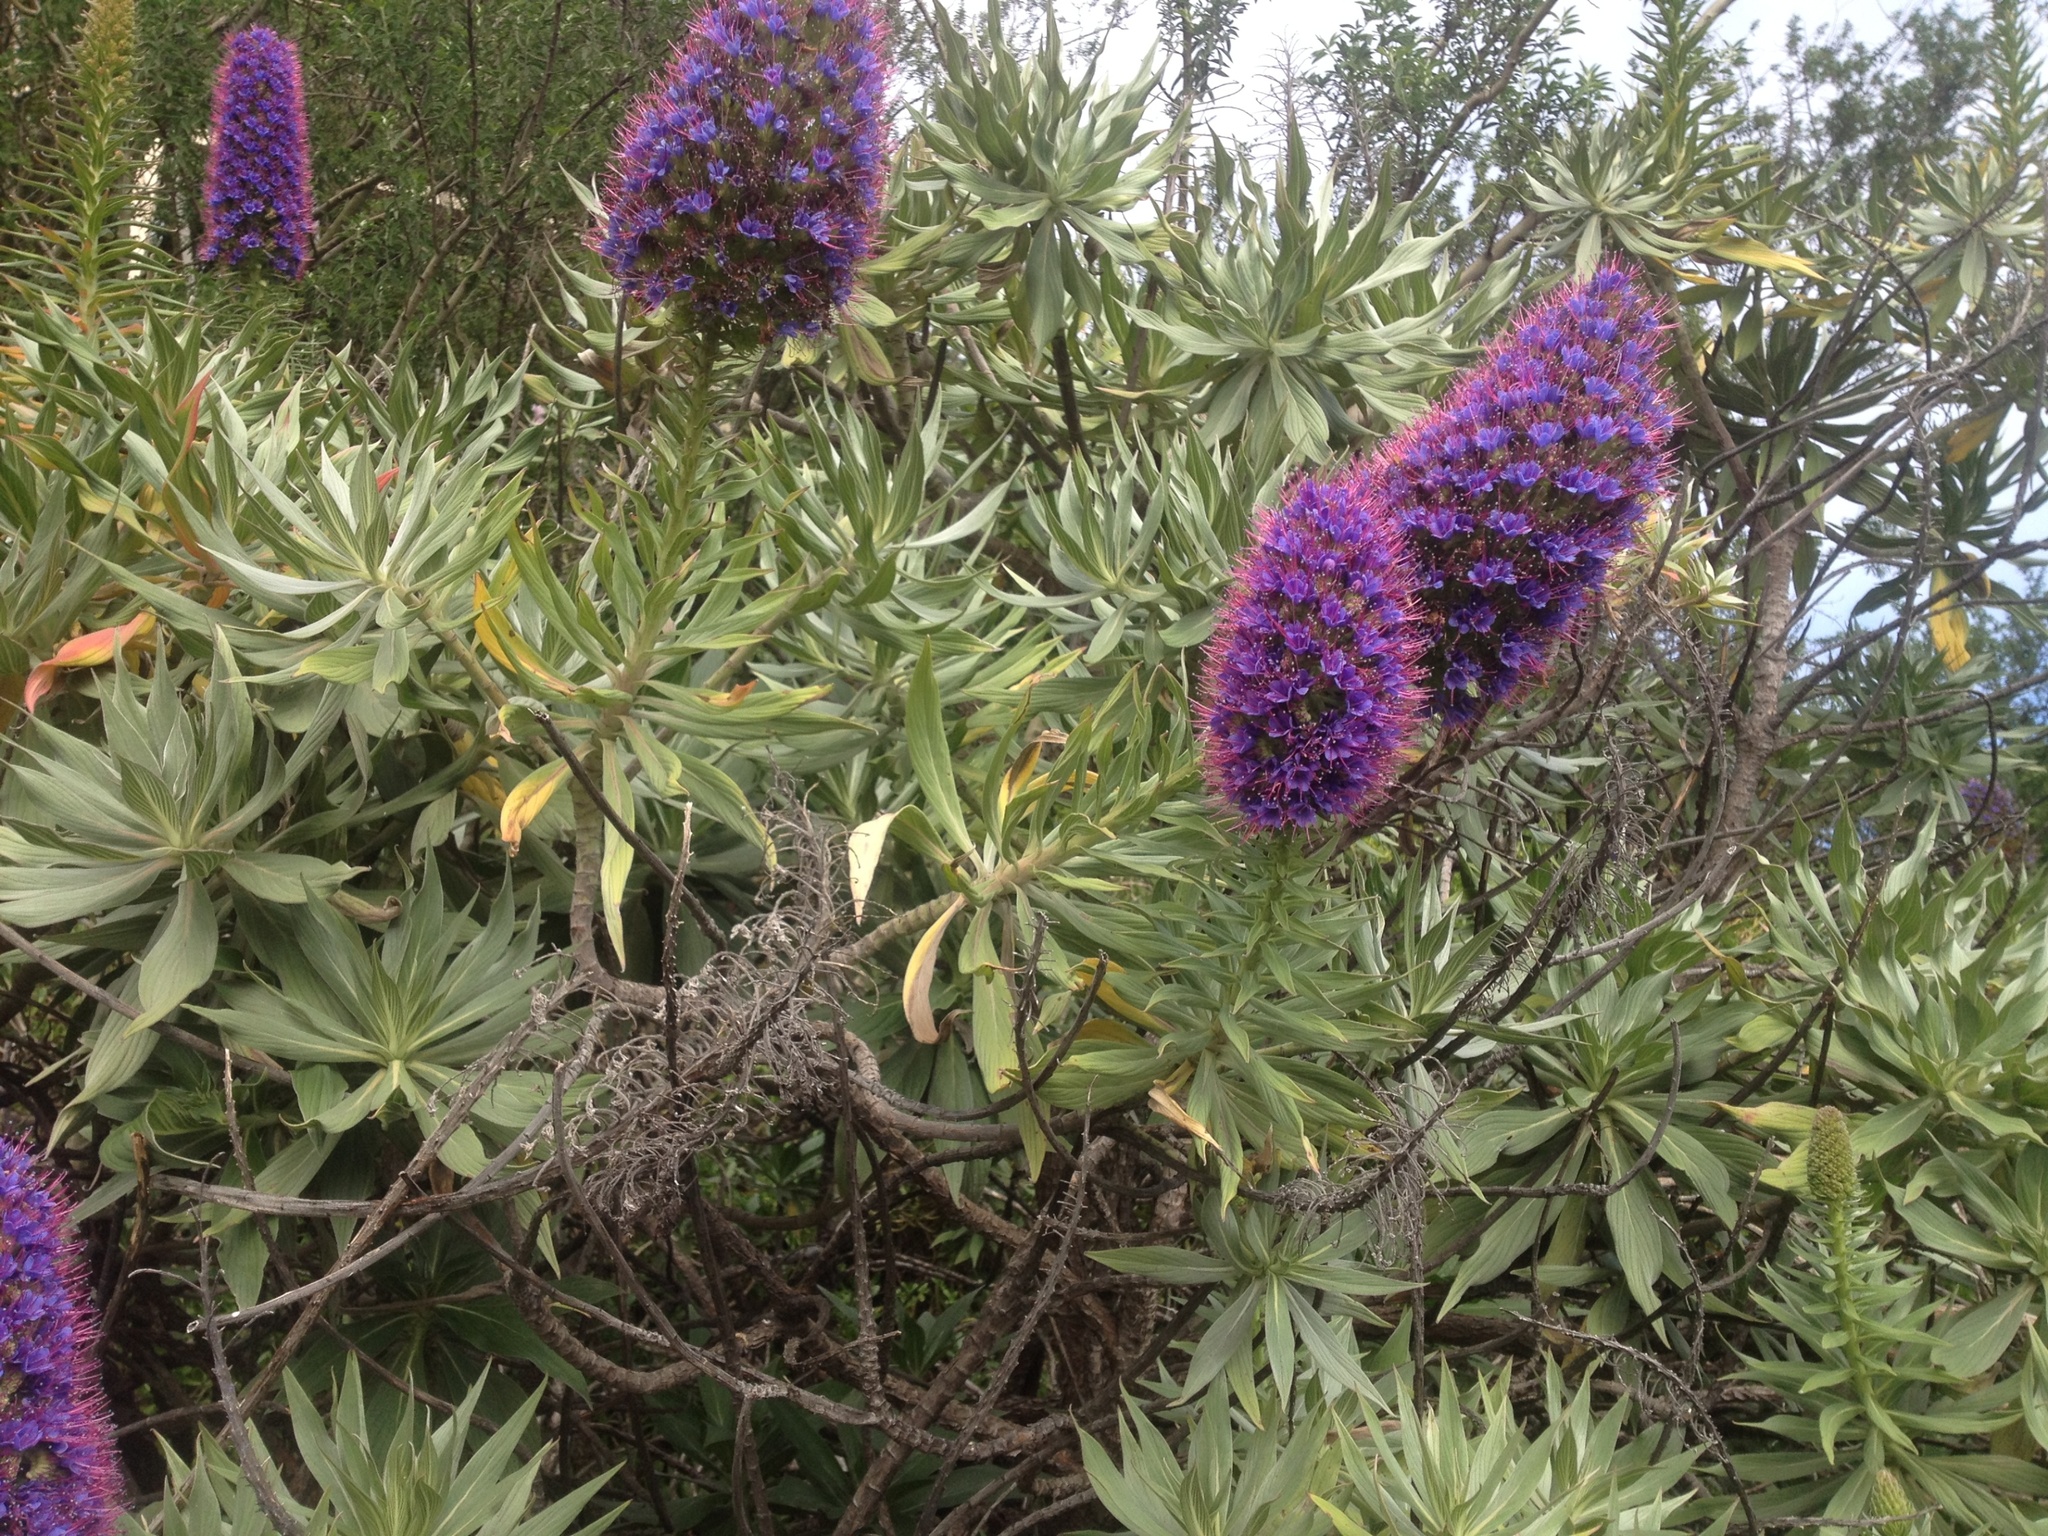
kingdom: Plantae
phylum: Tracheophyta
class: Magnoliopsida
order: Boraginales
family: Boraginaceae
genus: Echium
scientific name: Echium candicans
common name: Pride of madeira
